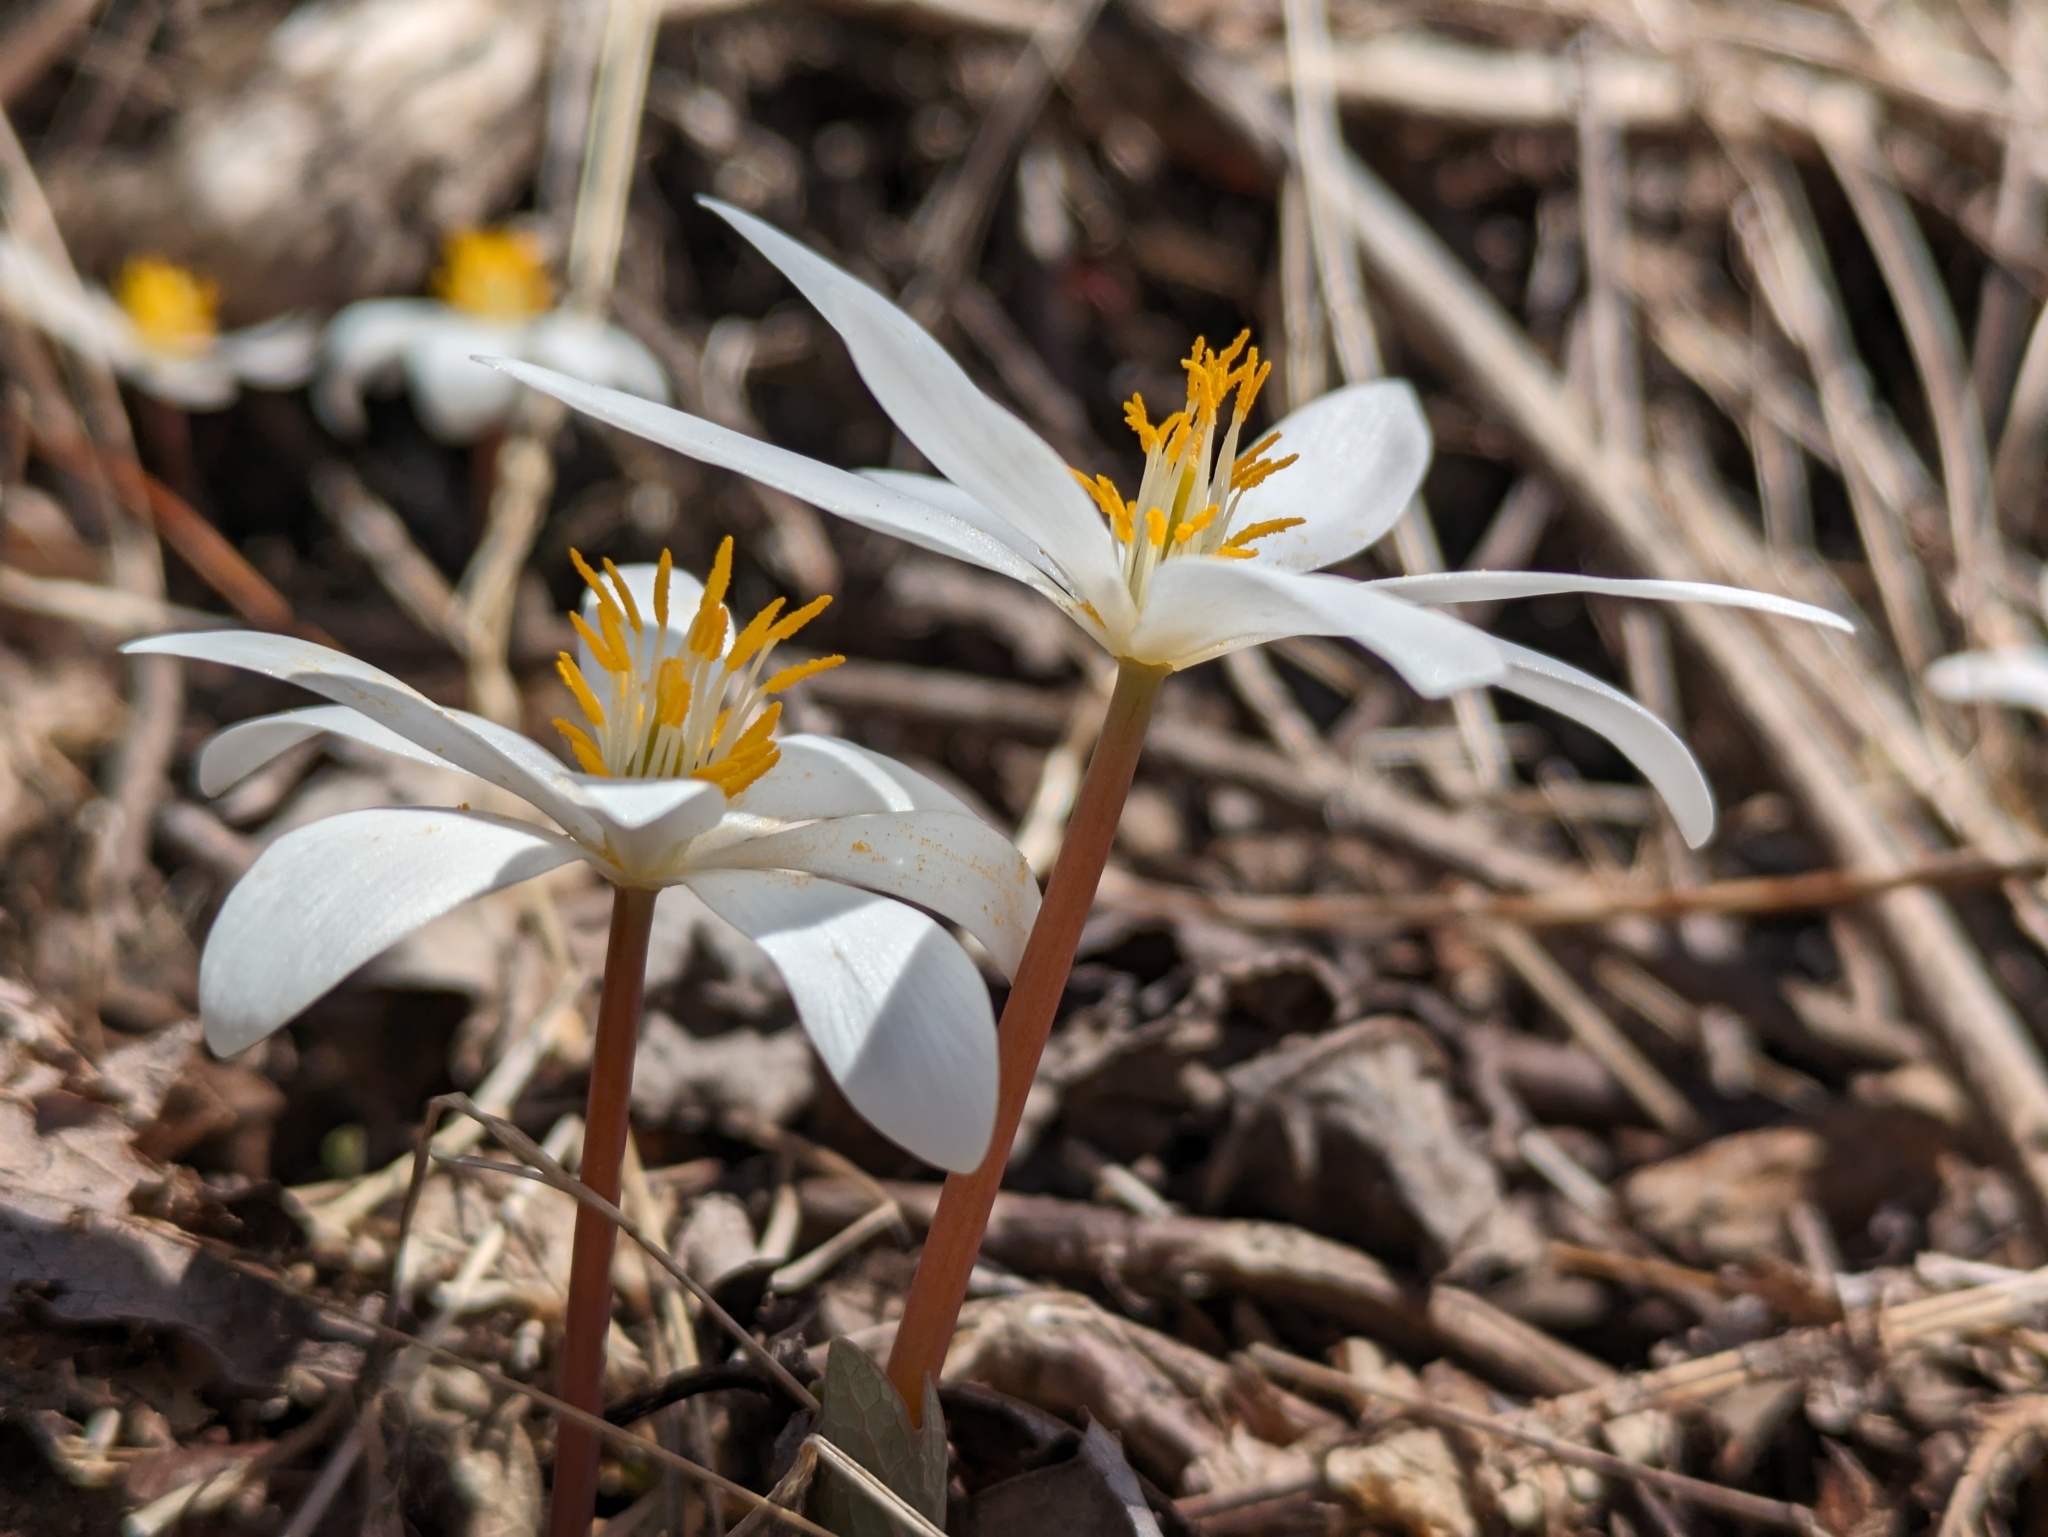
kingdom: Plantae
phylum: Tracheophyta
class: Magnoliopsida
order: Ranunculales
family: Papaveraceae
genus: Sanguinaria
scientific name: Sanguinaria canadensis
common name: Bloodroot
